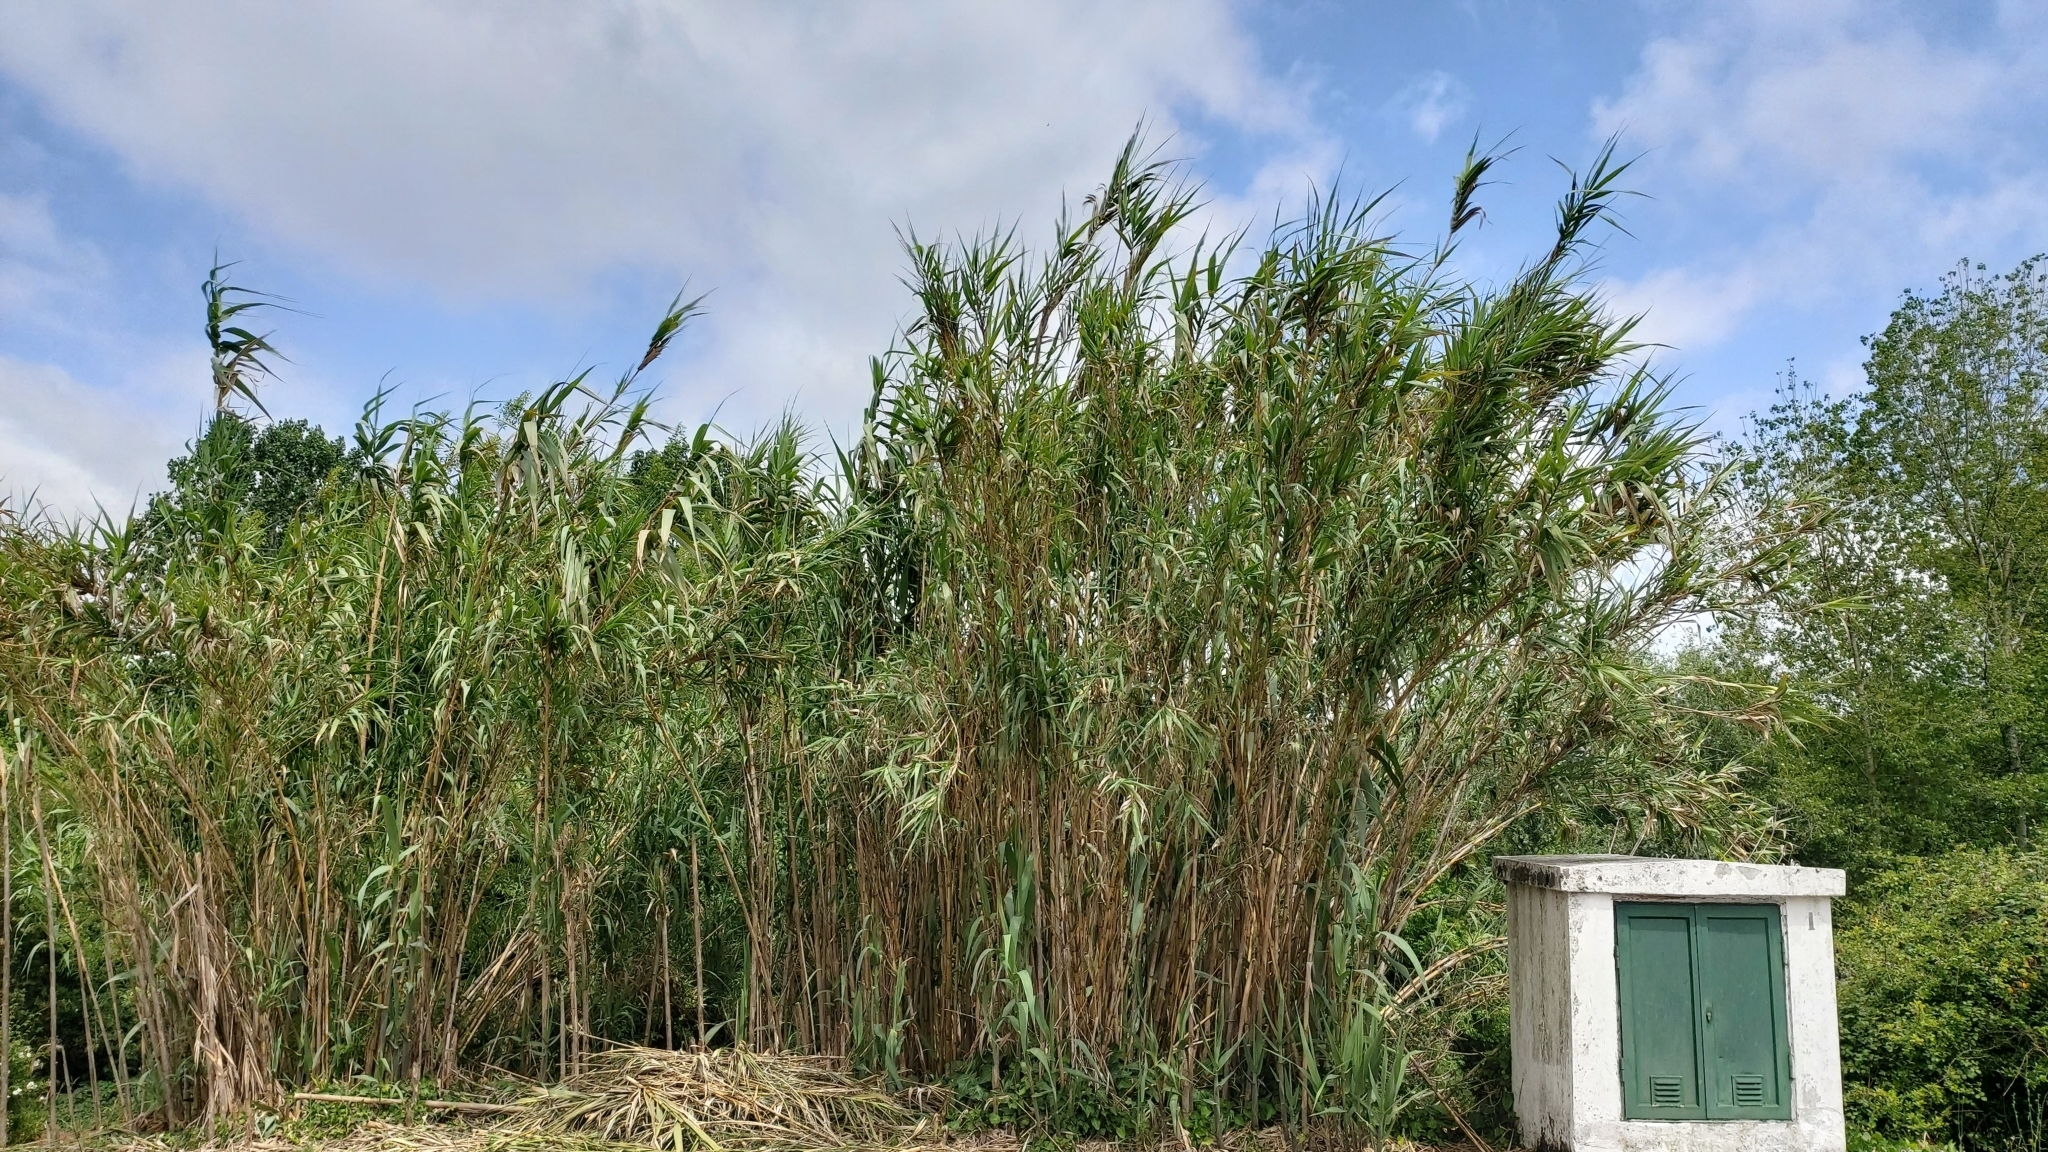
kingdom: Plantae
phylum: Tracheophyta
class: Liliopsida
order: Poales
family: Poaceae
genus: Arundo
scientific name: Arundo donax
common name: Giant reed
